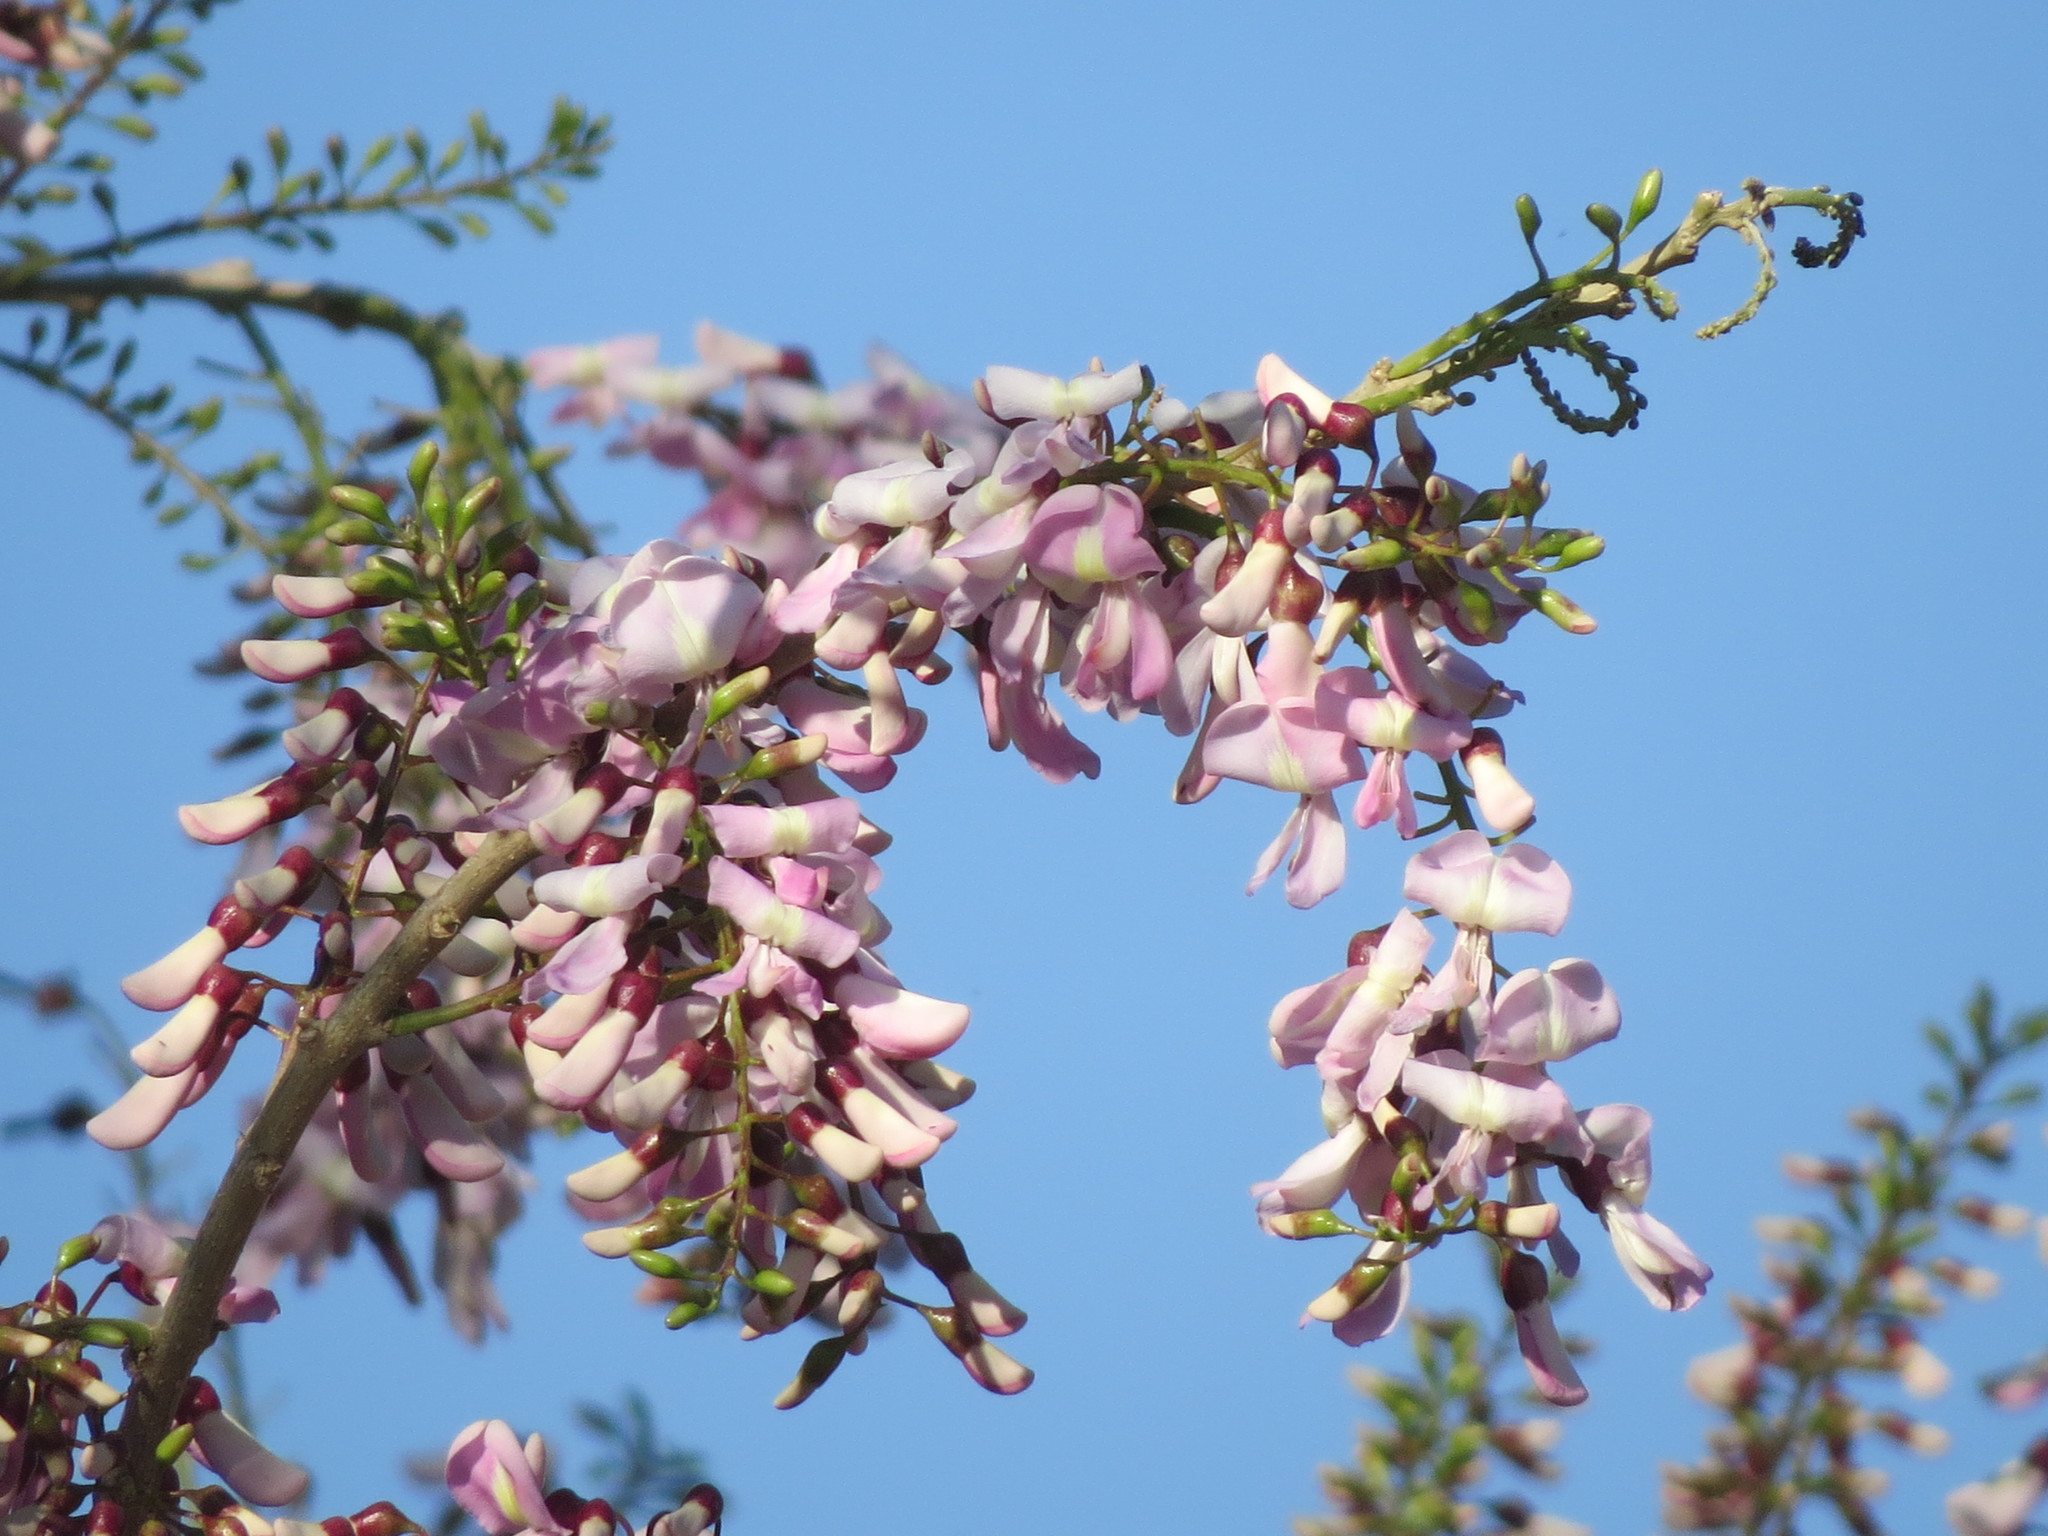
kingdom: Plantae
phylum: Tracheophyta
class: Magnoliopsida
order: Fabales
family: Fabaceae
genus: Gliricidia
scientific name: Gliricidia sepium
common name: Quickstick
